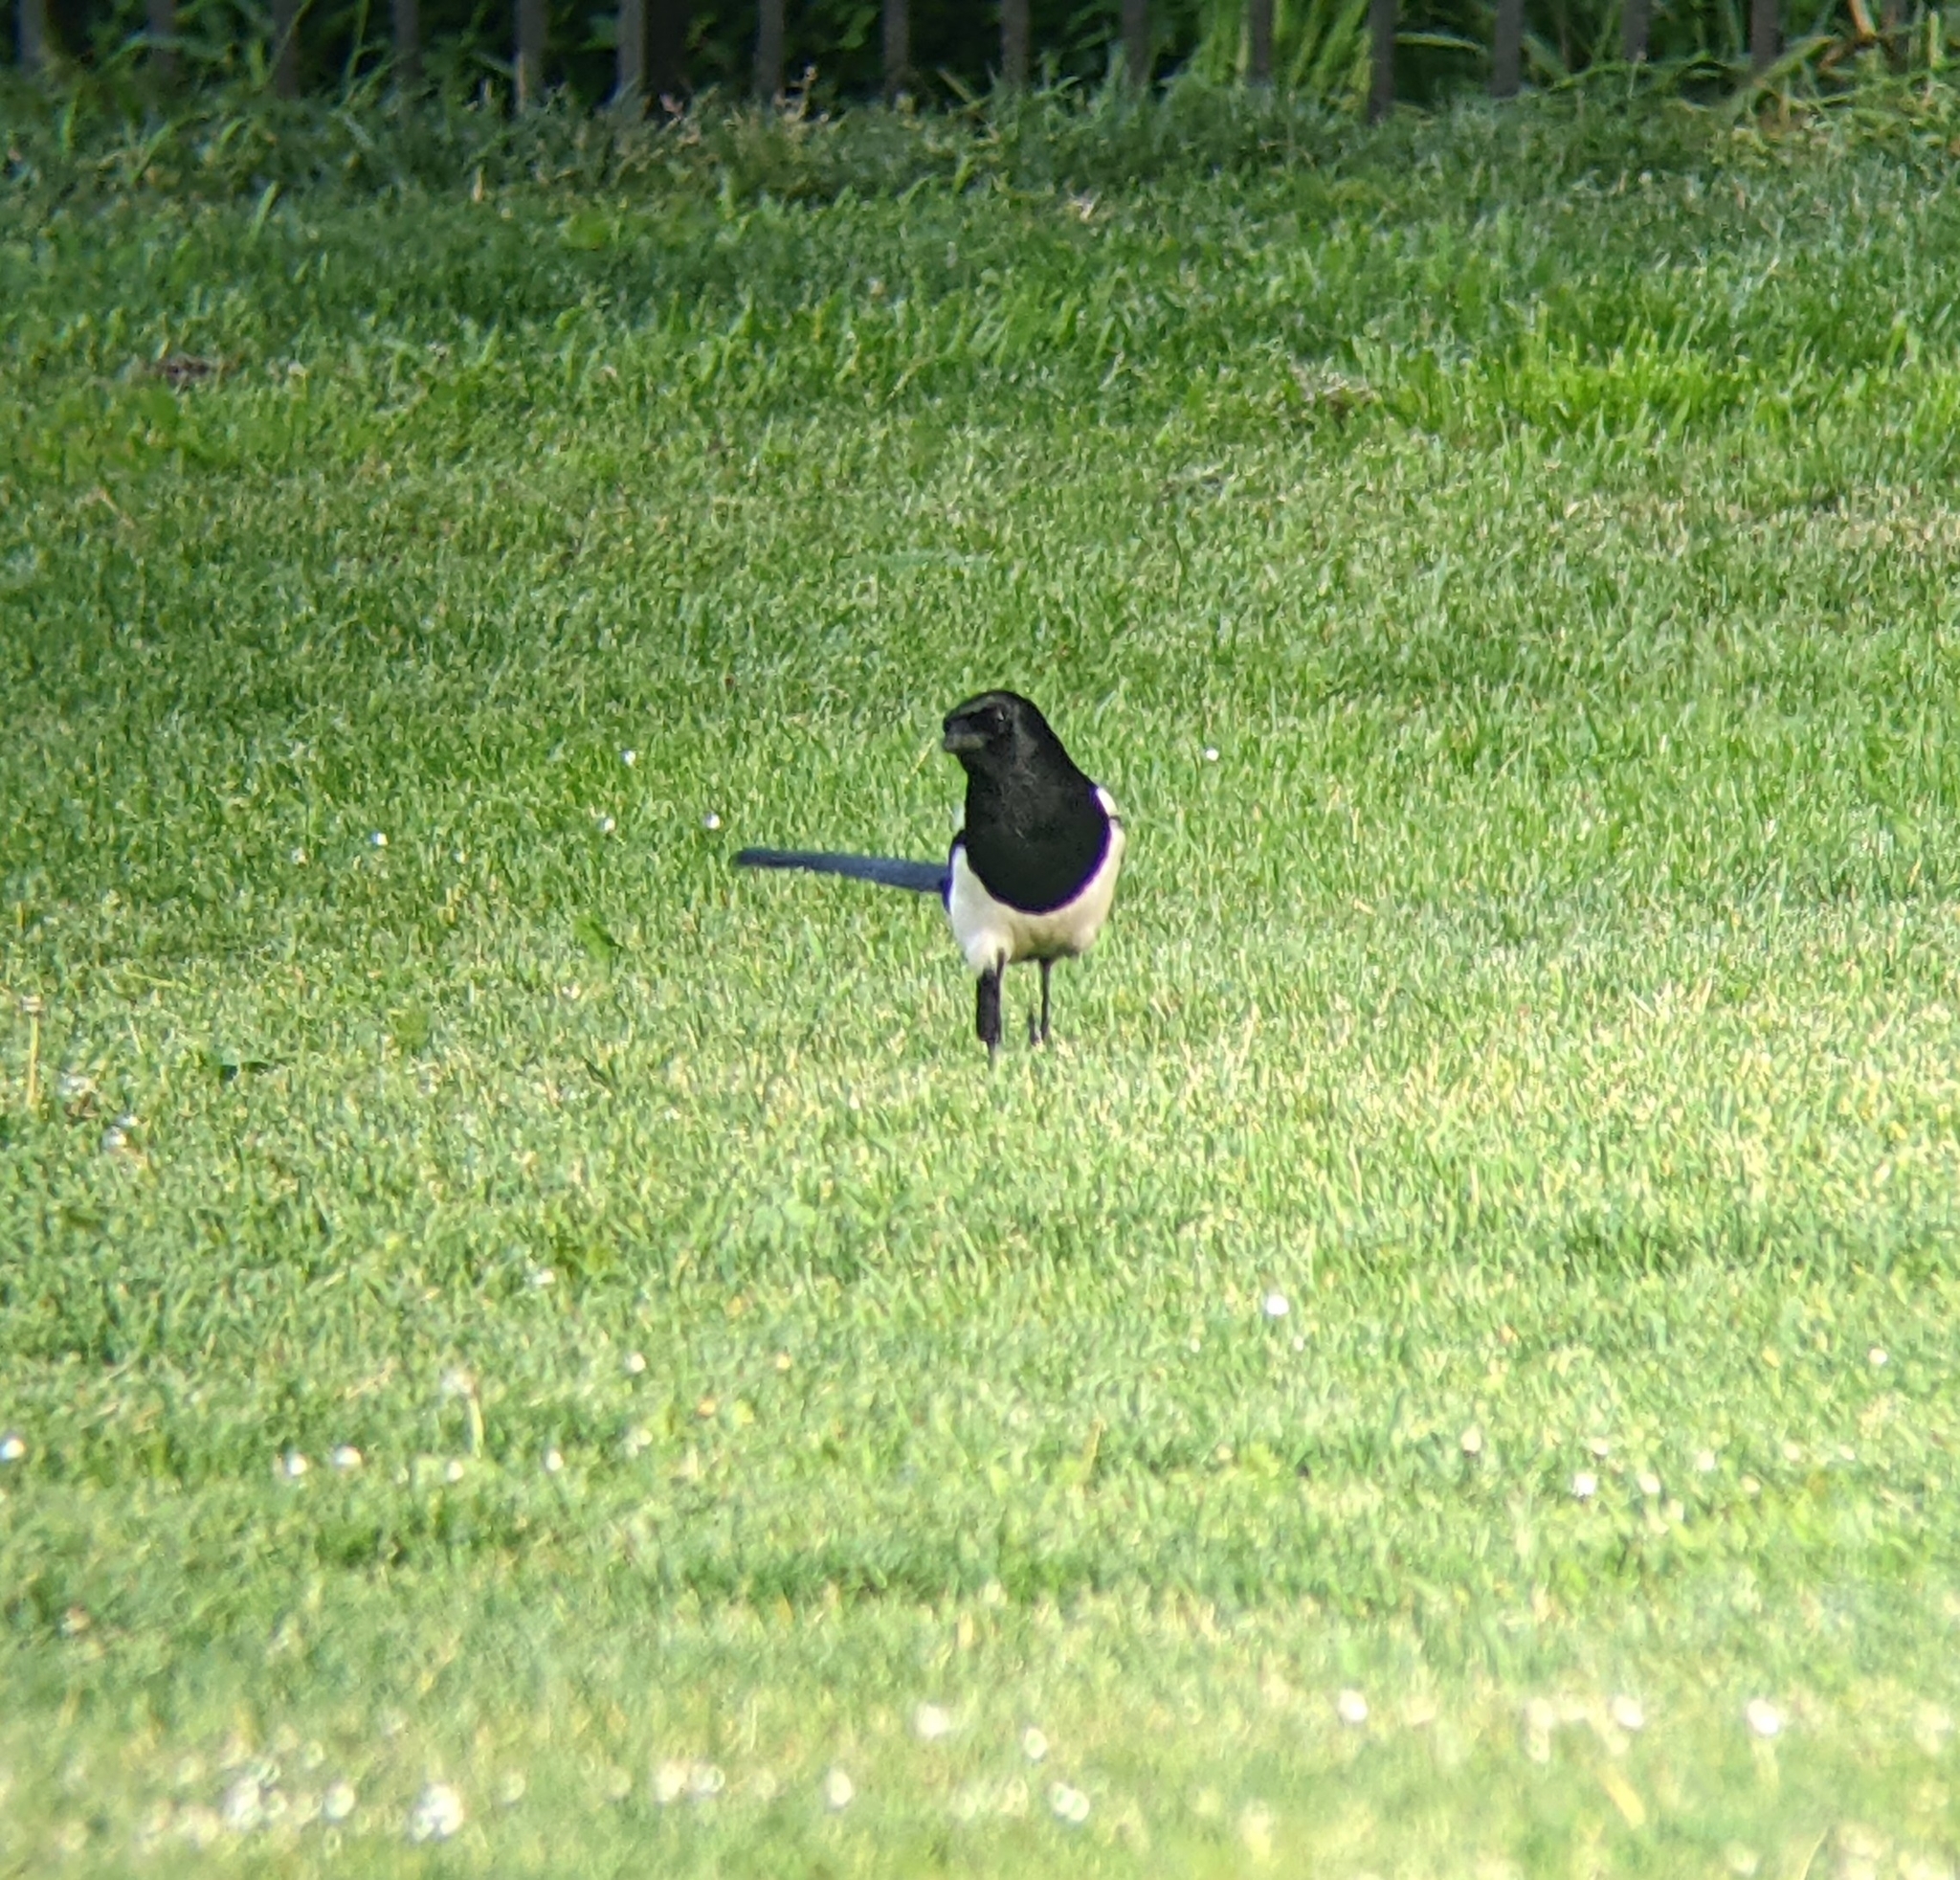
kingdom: Animalia
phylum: Chordata
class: Aves
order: Passeriformes
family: Corvidae
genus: Pica
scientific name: Pica pica
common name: Eurasian magpie
